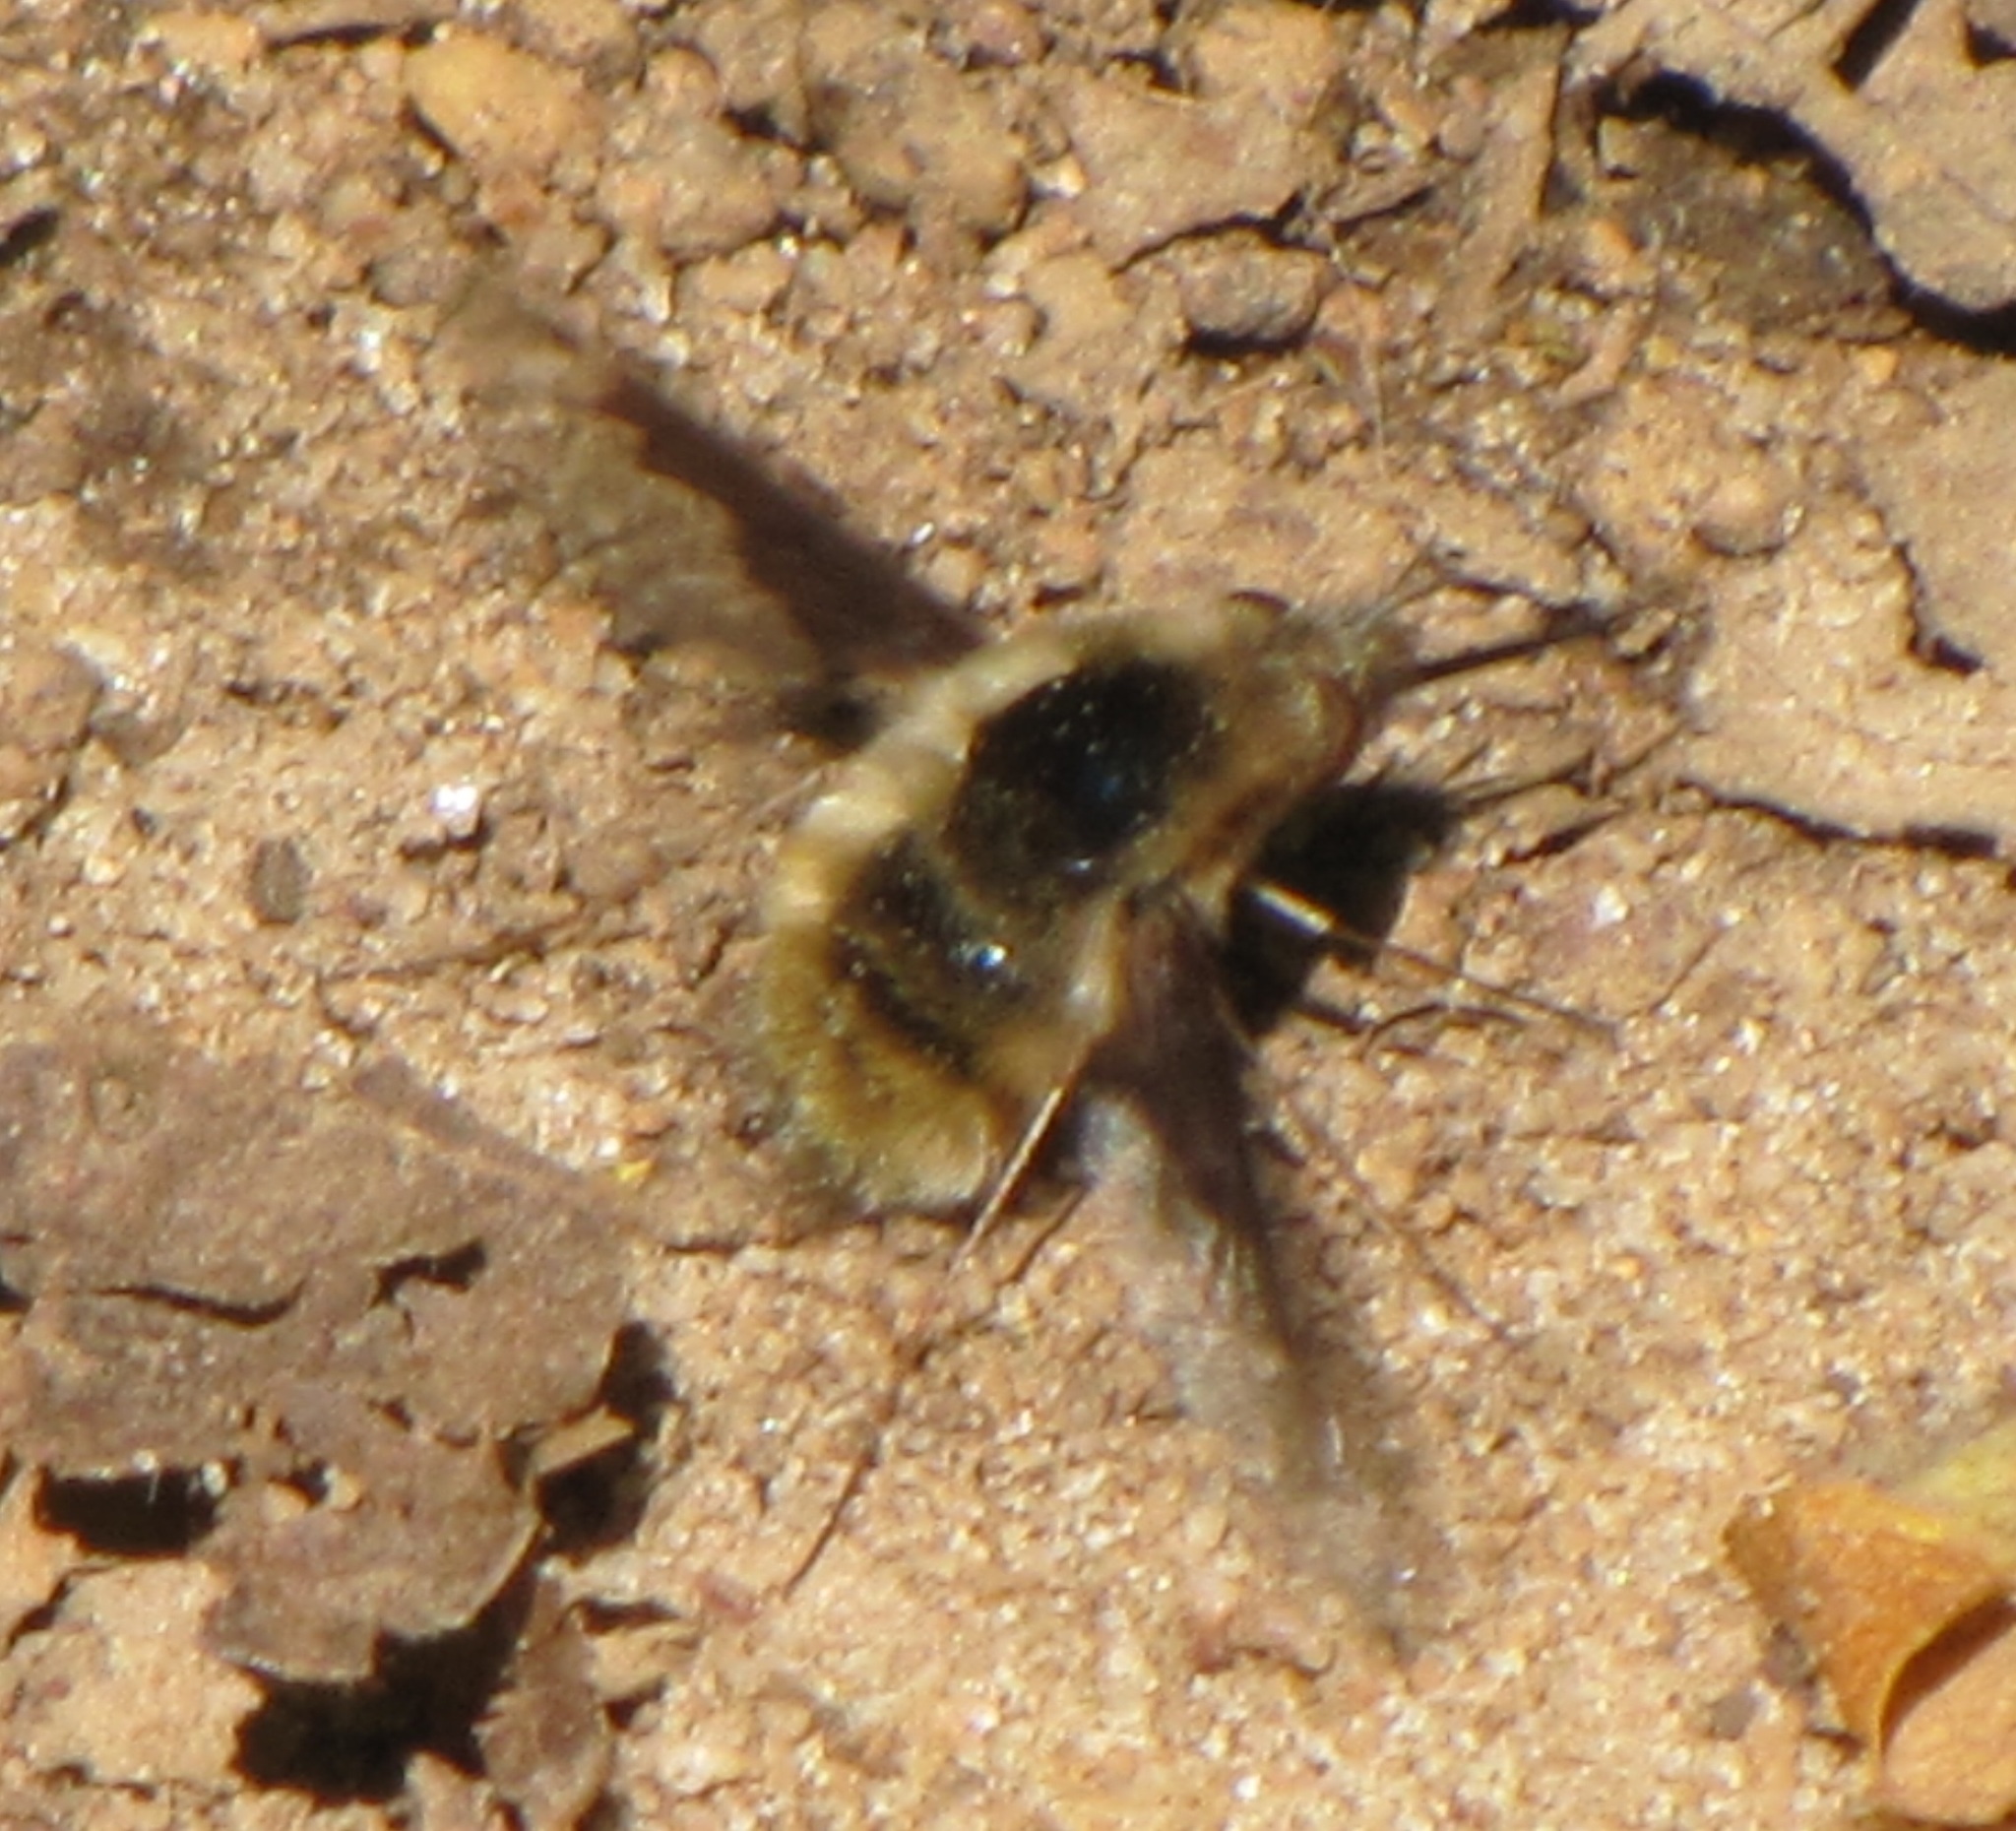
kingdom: Animalia
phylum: Arthropoda
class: Insecta
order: Diptera
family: Bombyliidae
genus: Bombylius
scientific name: Bombylius major
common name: Bee fly
